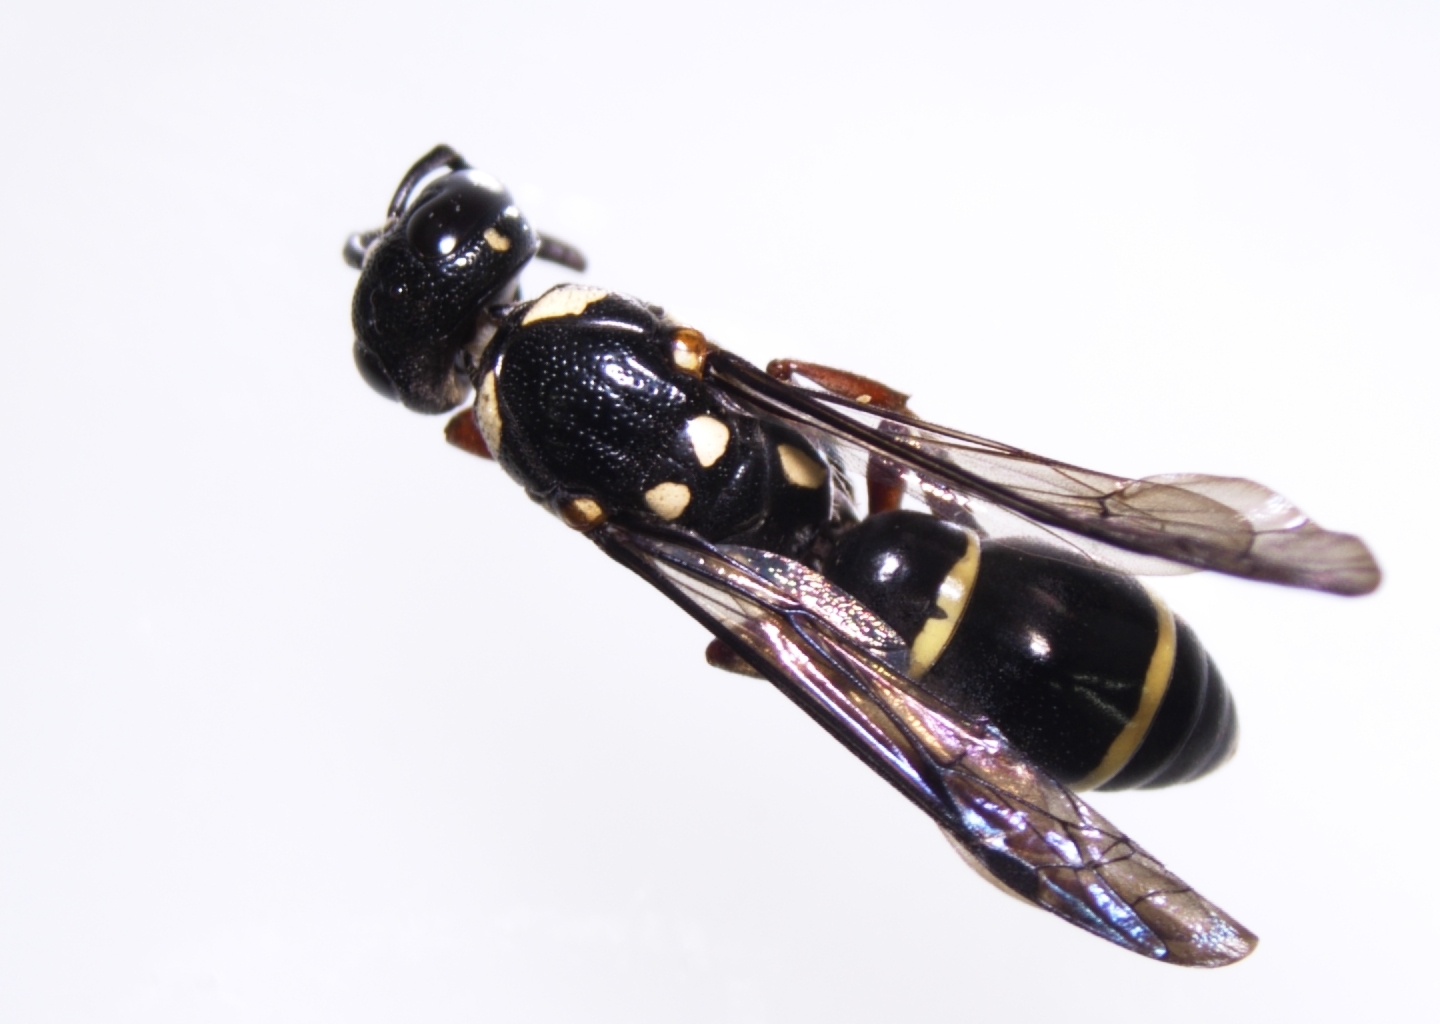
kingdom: Animalia
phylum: Arthropoda
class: Insecta
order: Hymenoptera
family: Eumenidae
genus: Parodynerus
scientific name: Parodynerus bicinctus
